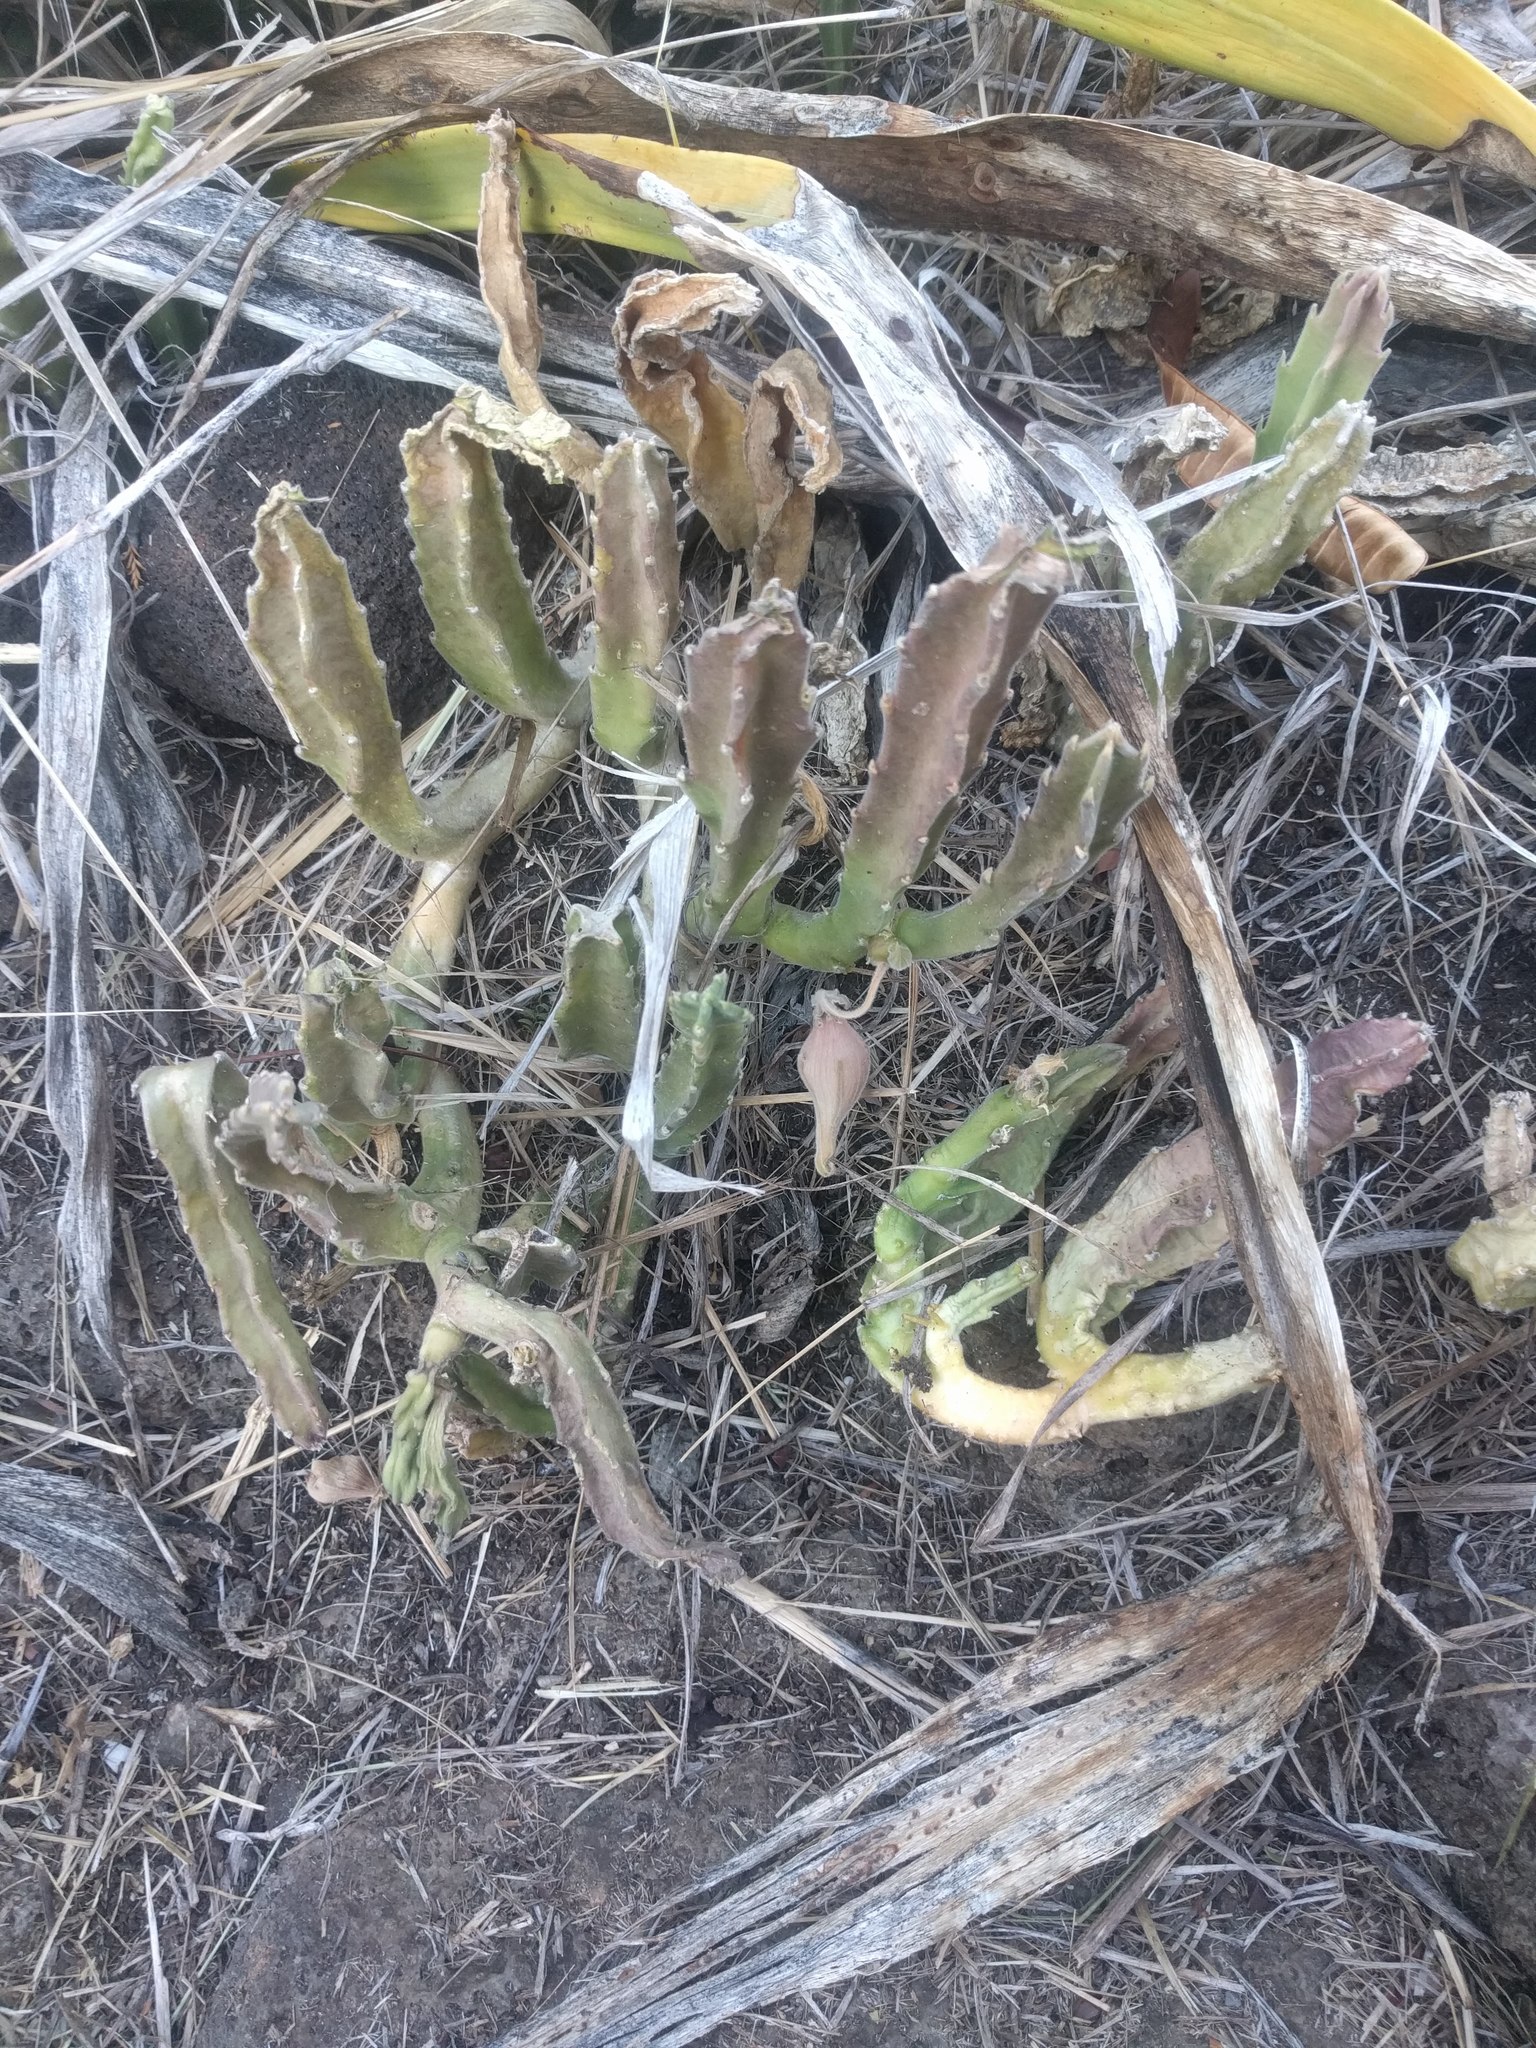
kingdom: Plantae
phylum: Tracheophyta
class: Magnoliopsida
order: Gentianales
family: Apocynaceae
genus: Ceropegia
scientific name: Ceropegia gigantea
